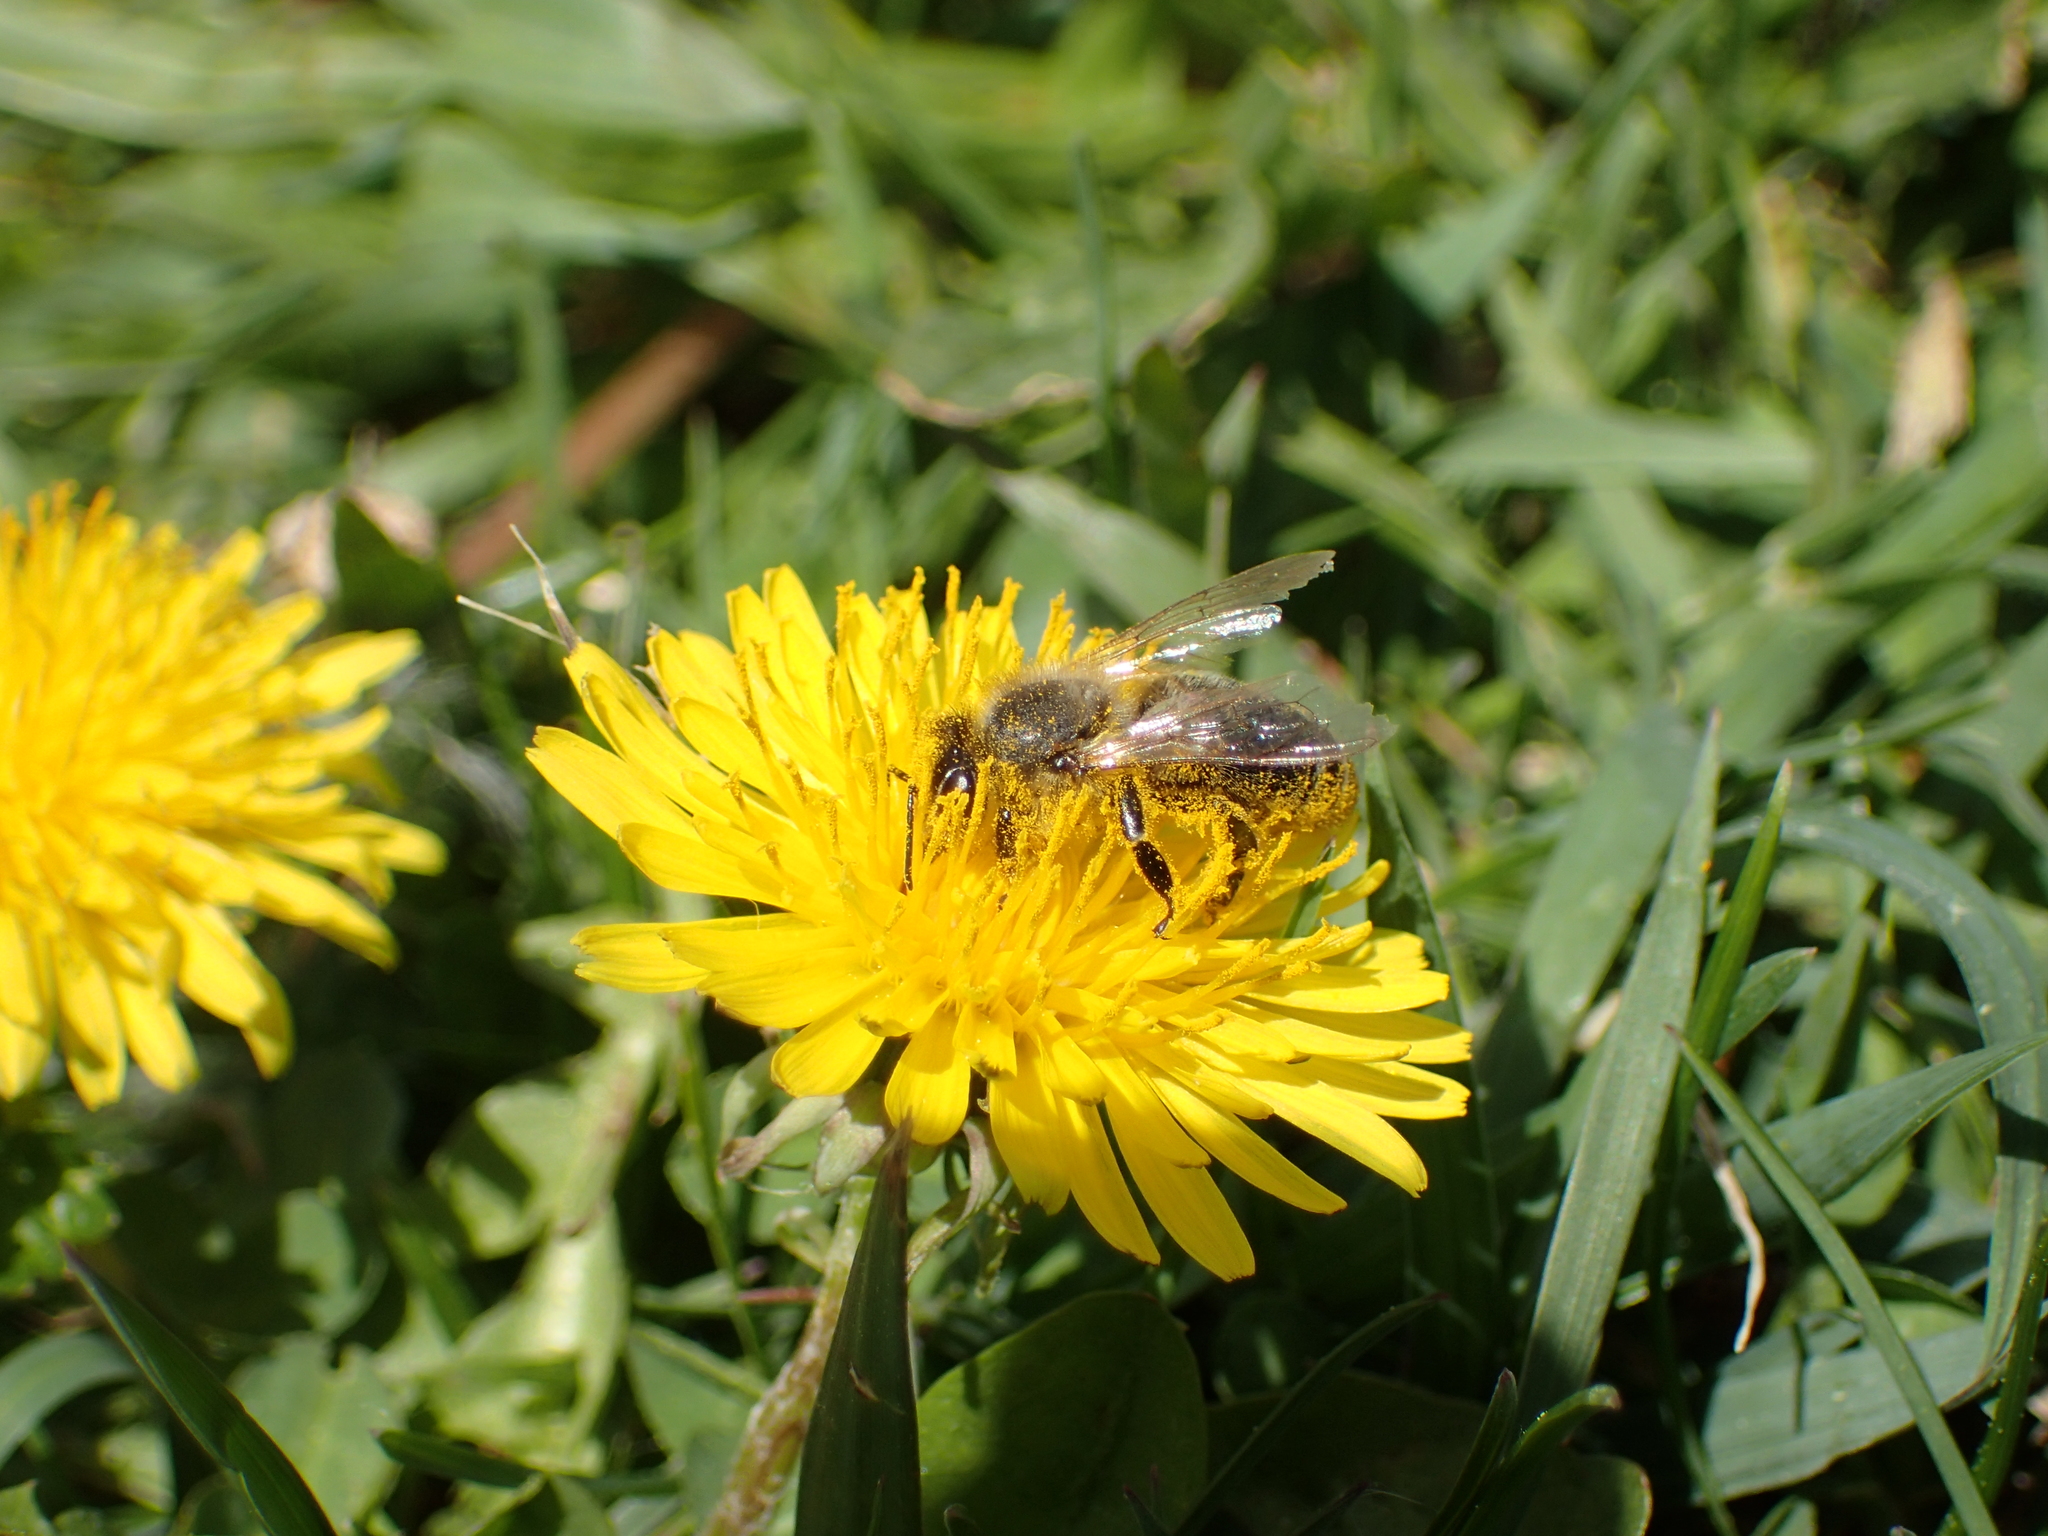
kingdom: Animalia
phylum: Arthropoda
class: Insecta
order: Hymenoptera
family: Apidae
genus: Apis
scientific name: Apis mellifera
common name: Honey bee
